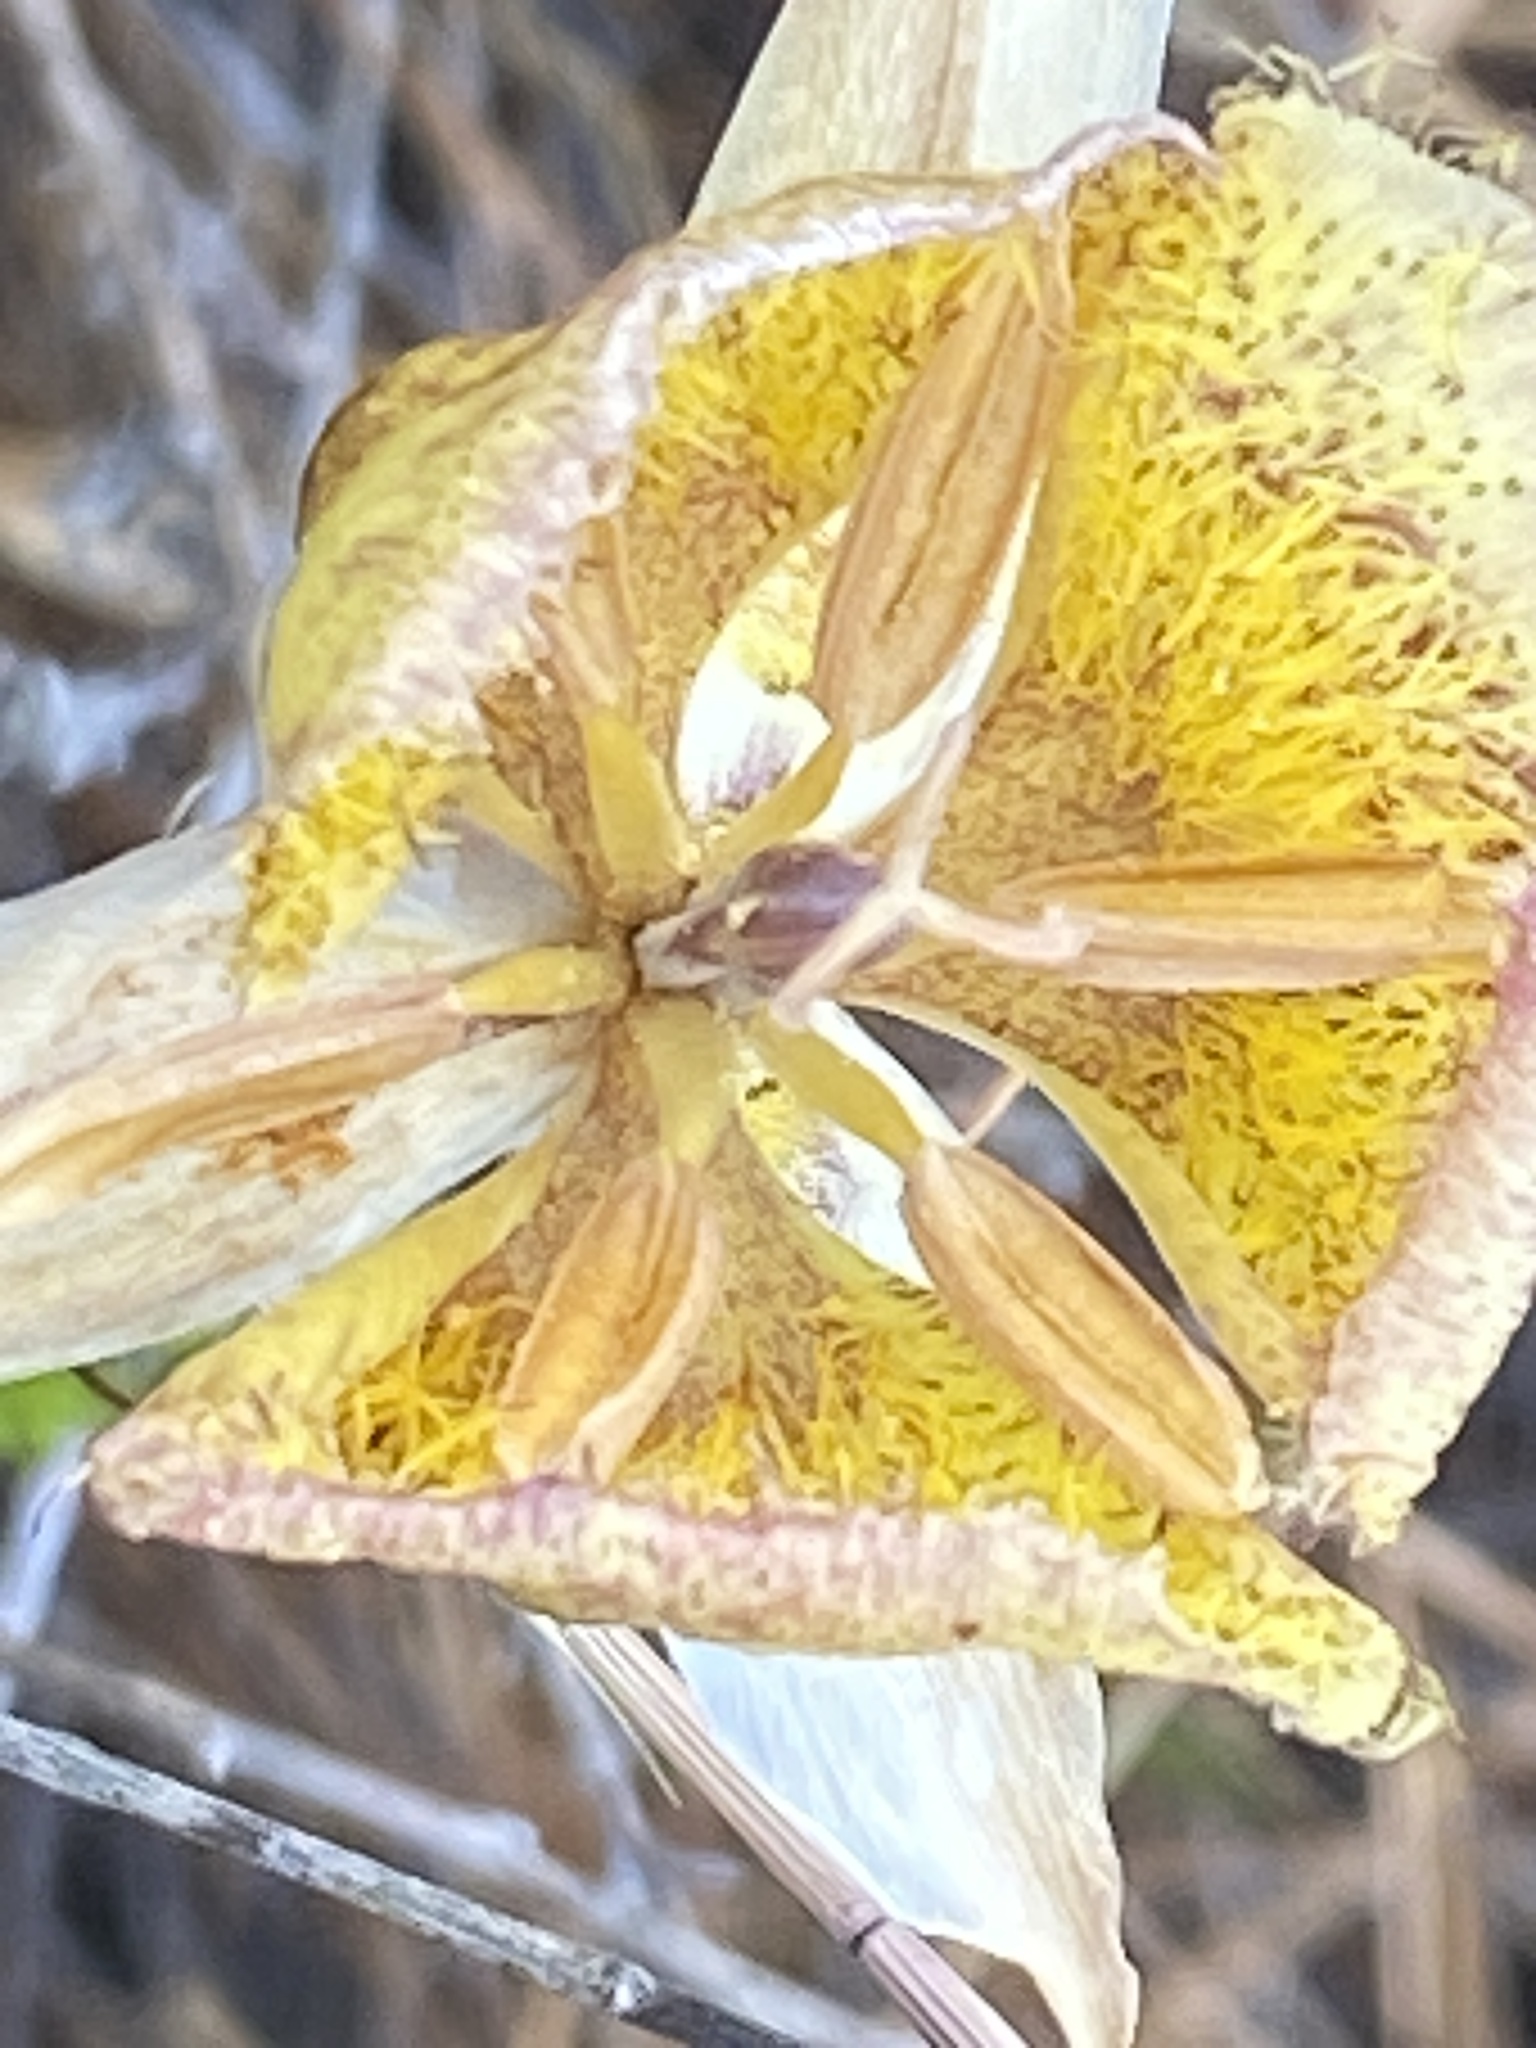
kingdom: Plantae
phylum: Tracheophyta
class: Liliopsida
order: Liliales
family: Liliaceae
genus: Calochortus
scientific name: Calochortus weedii
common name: Weed's mariposa-lily
